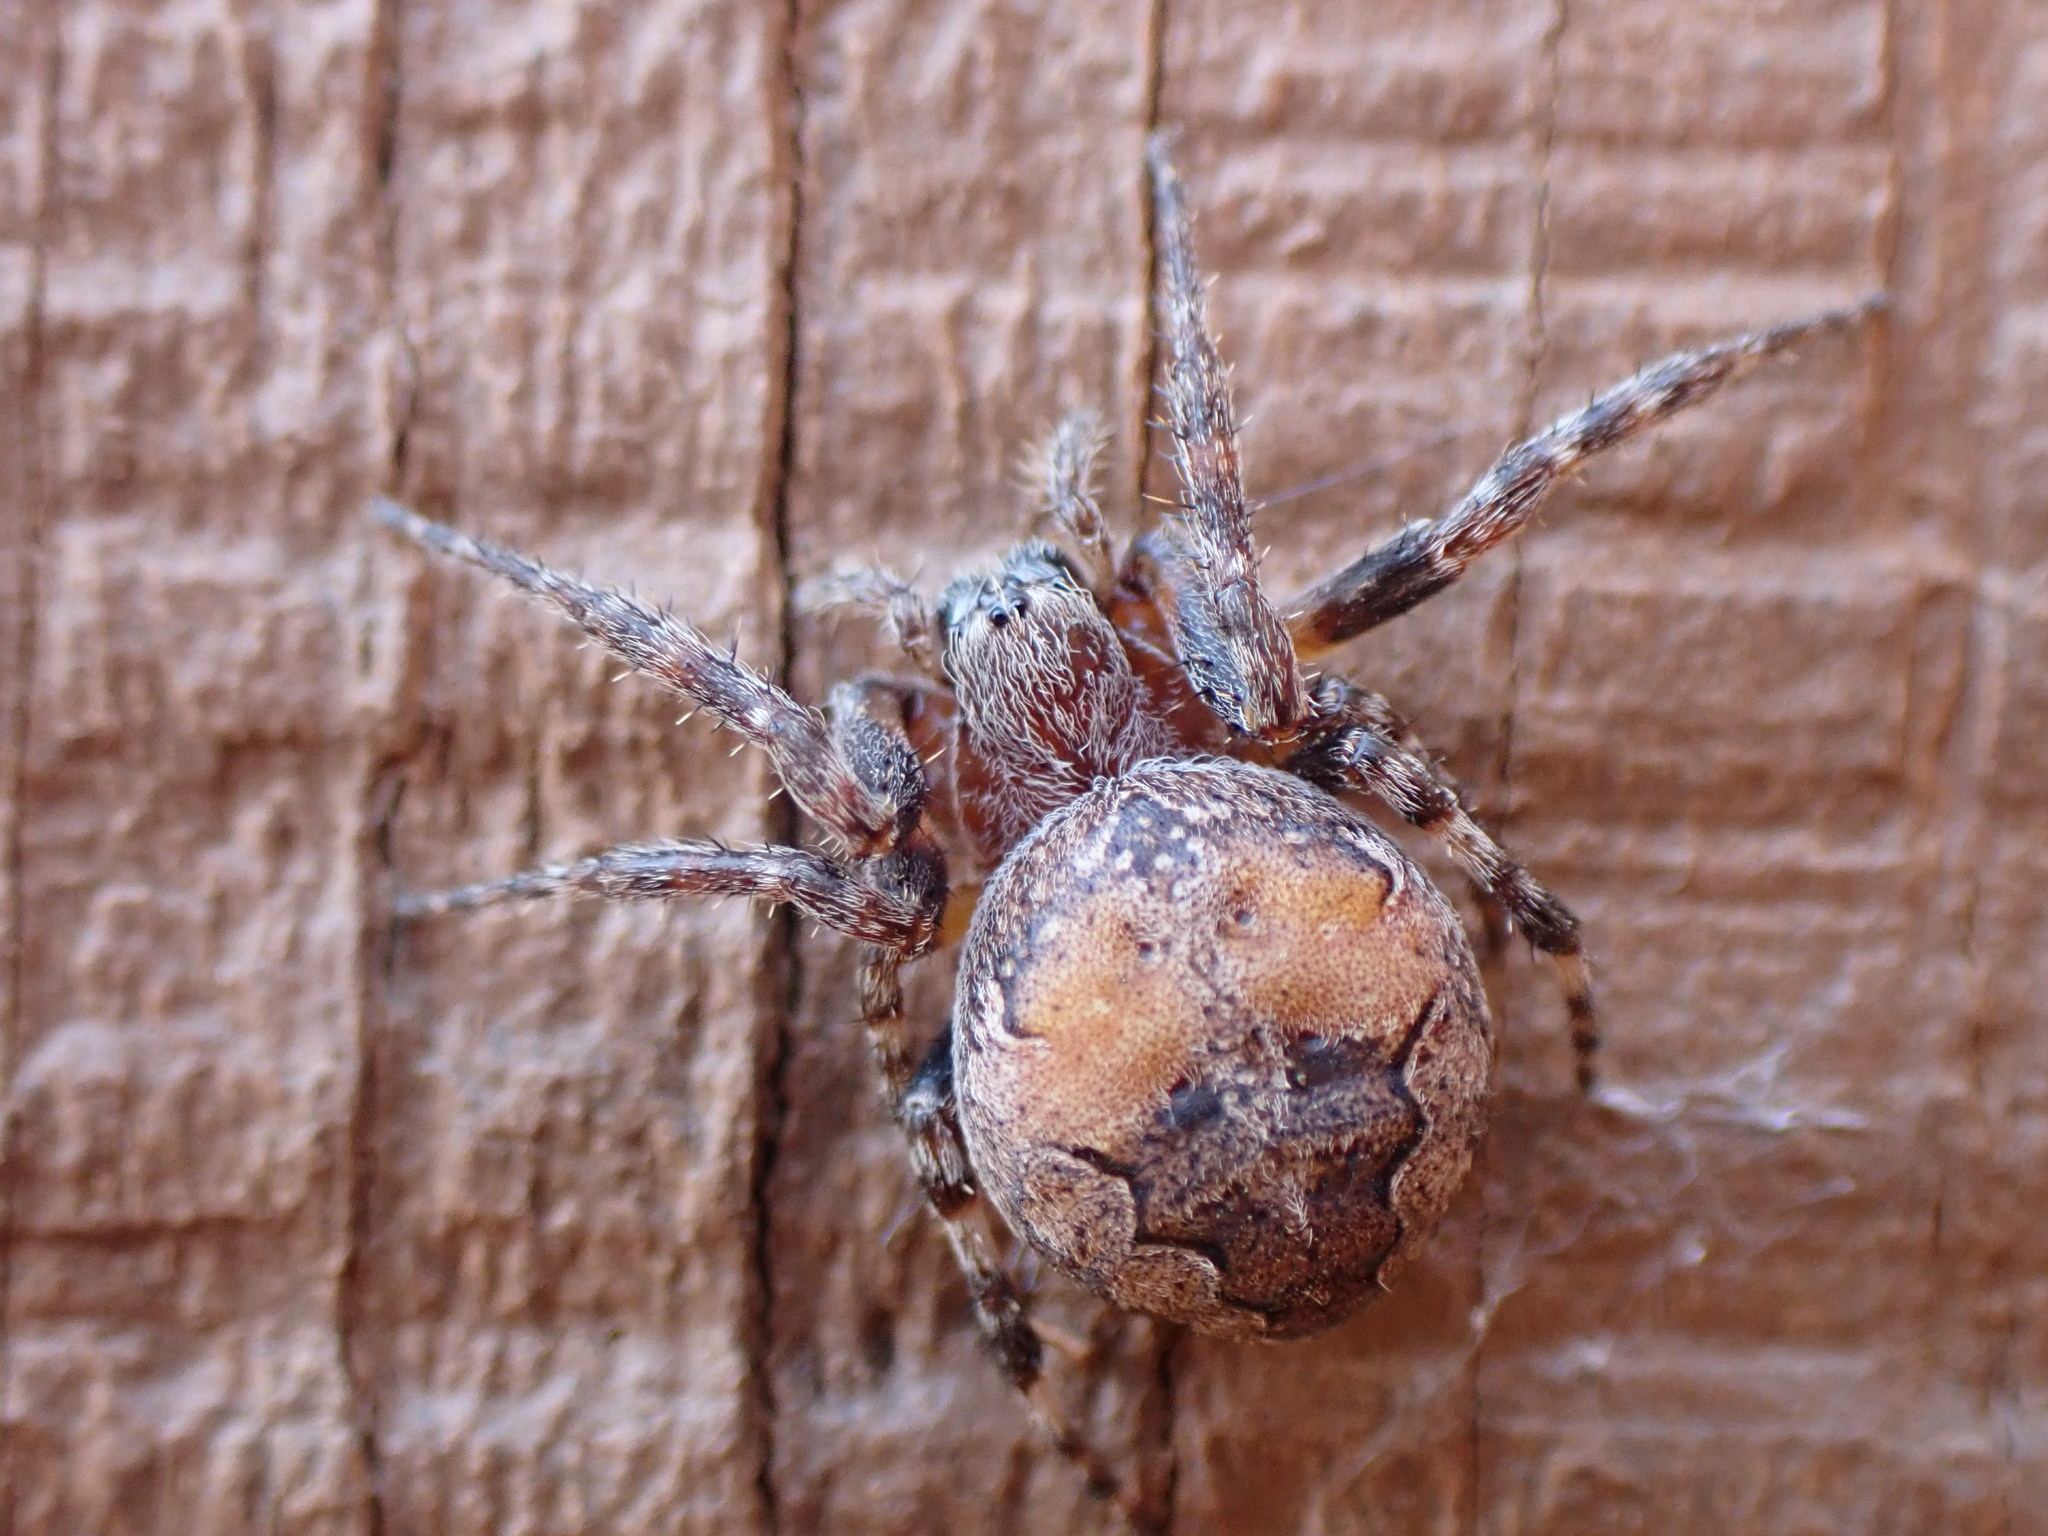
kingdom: Animalia
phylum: Arthropoda
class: Arachnida
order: Araneae
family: Araneidae
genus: Larinioides
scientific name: Larinioides patagiatus
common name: Ornamental orbweaver
